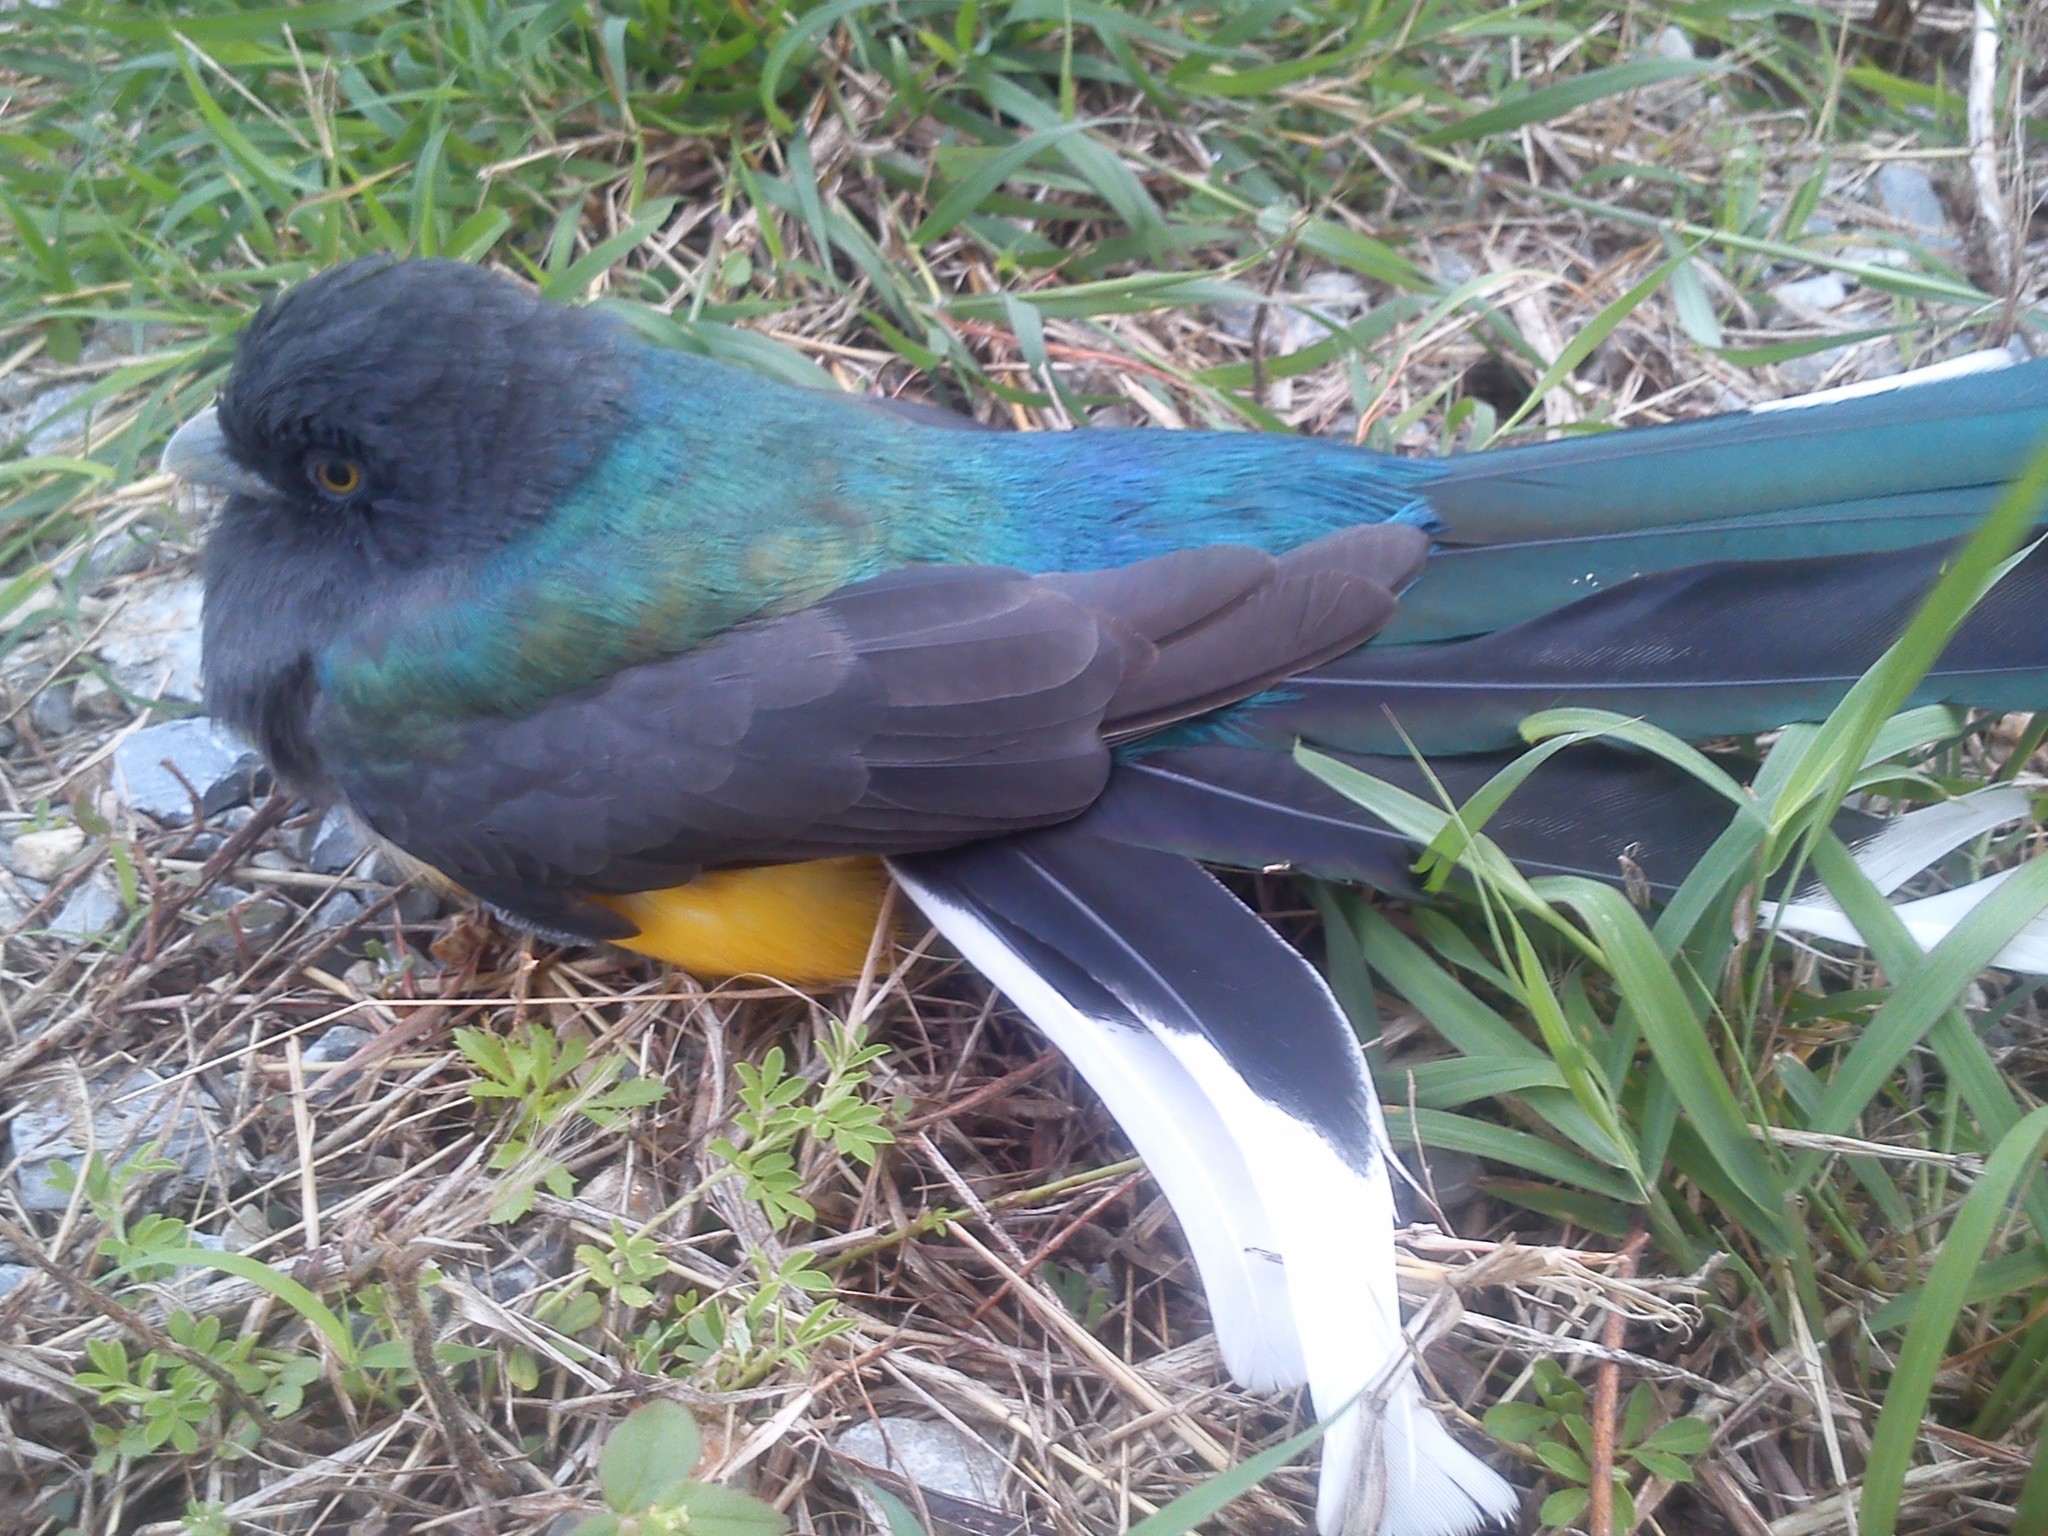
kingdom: Animalia
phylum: Chordata
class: Aves
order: Trogoniformes
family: Trogonidae
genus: Trogon
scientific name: Trogon citreolus
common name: Citreoline trogon
